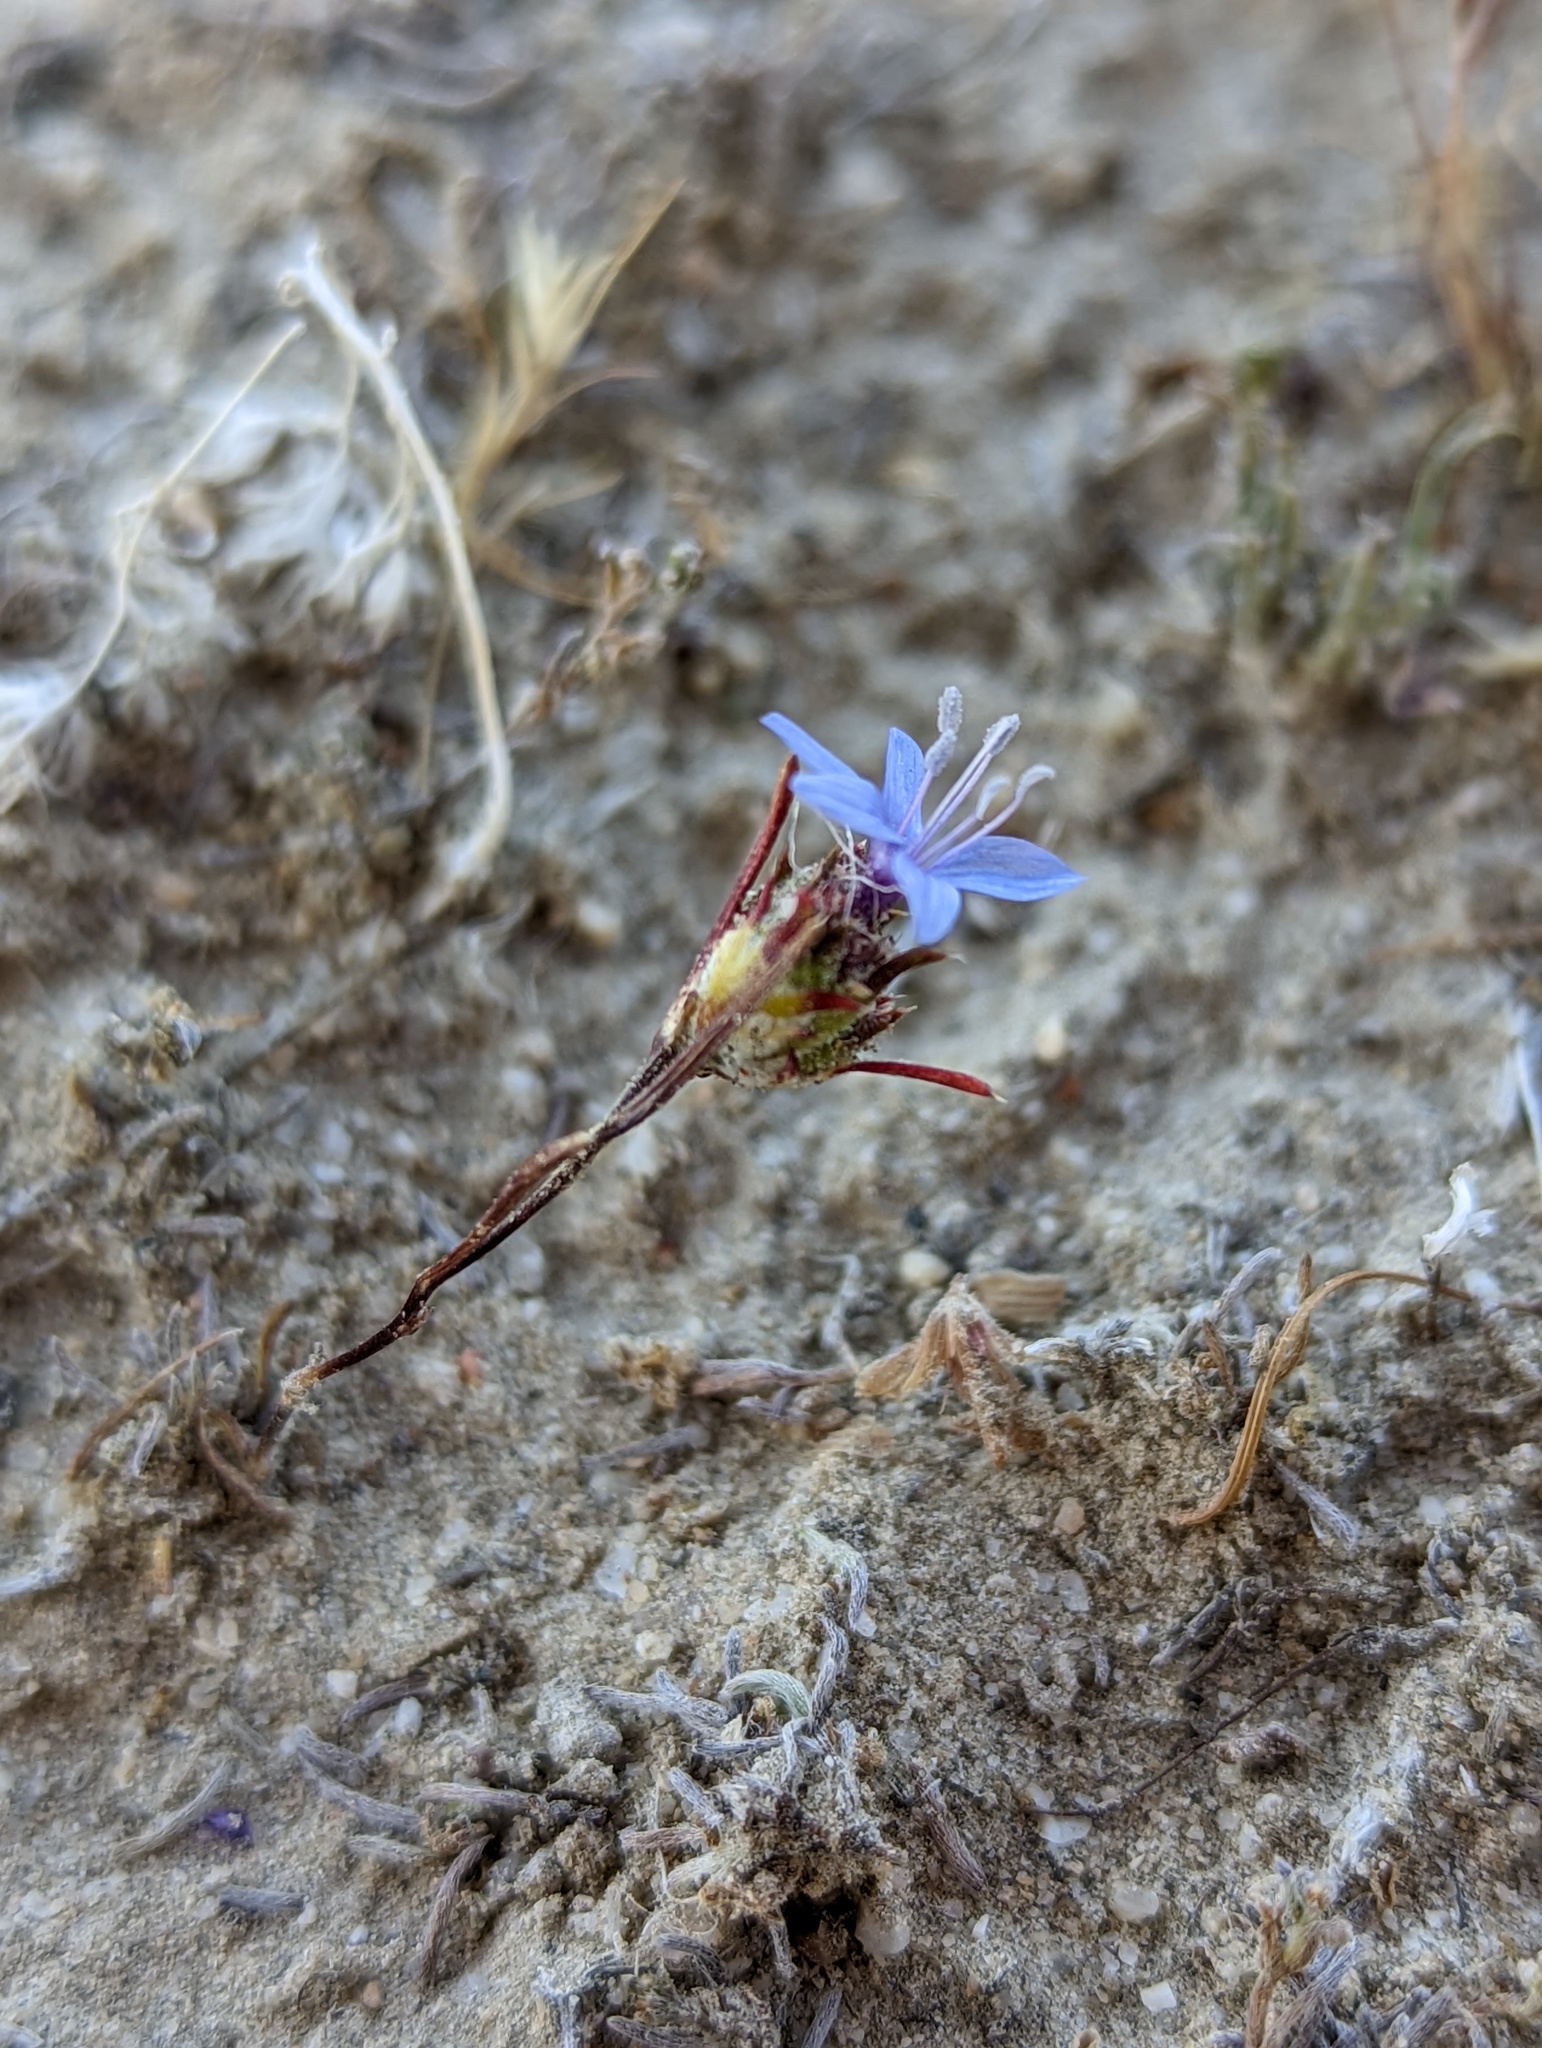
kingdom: Plantae
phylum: Tracheophyta
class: Magnoliopsida
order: Ericales
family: Polemoniaceae
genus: Eriastrum
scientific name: Eriastrum sapphirinum
